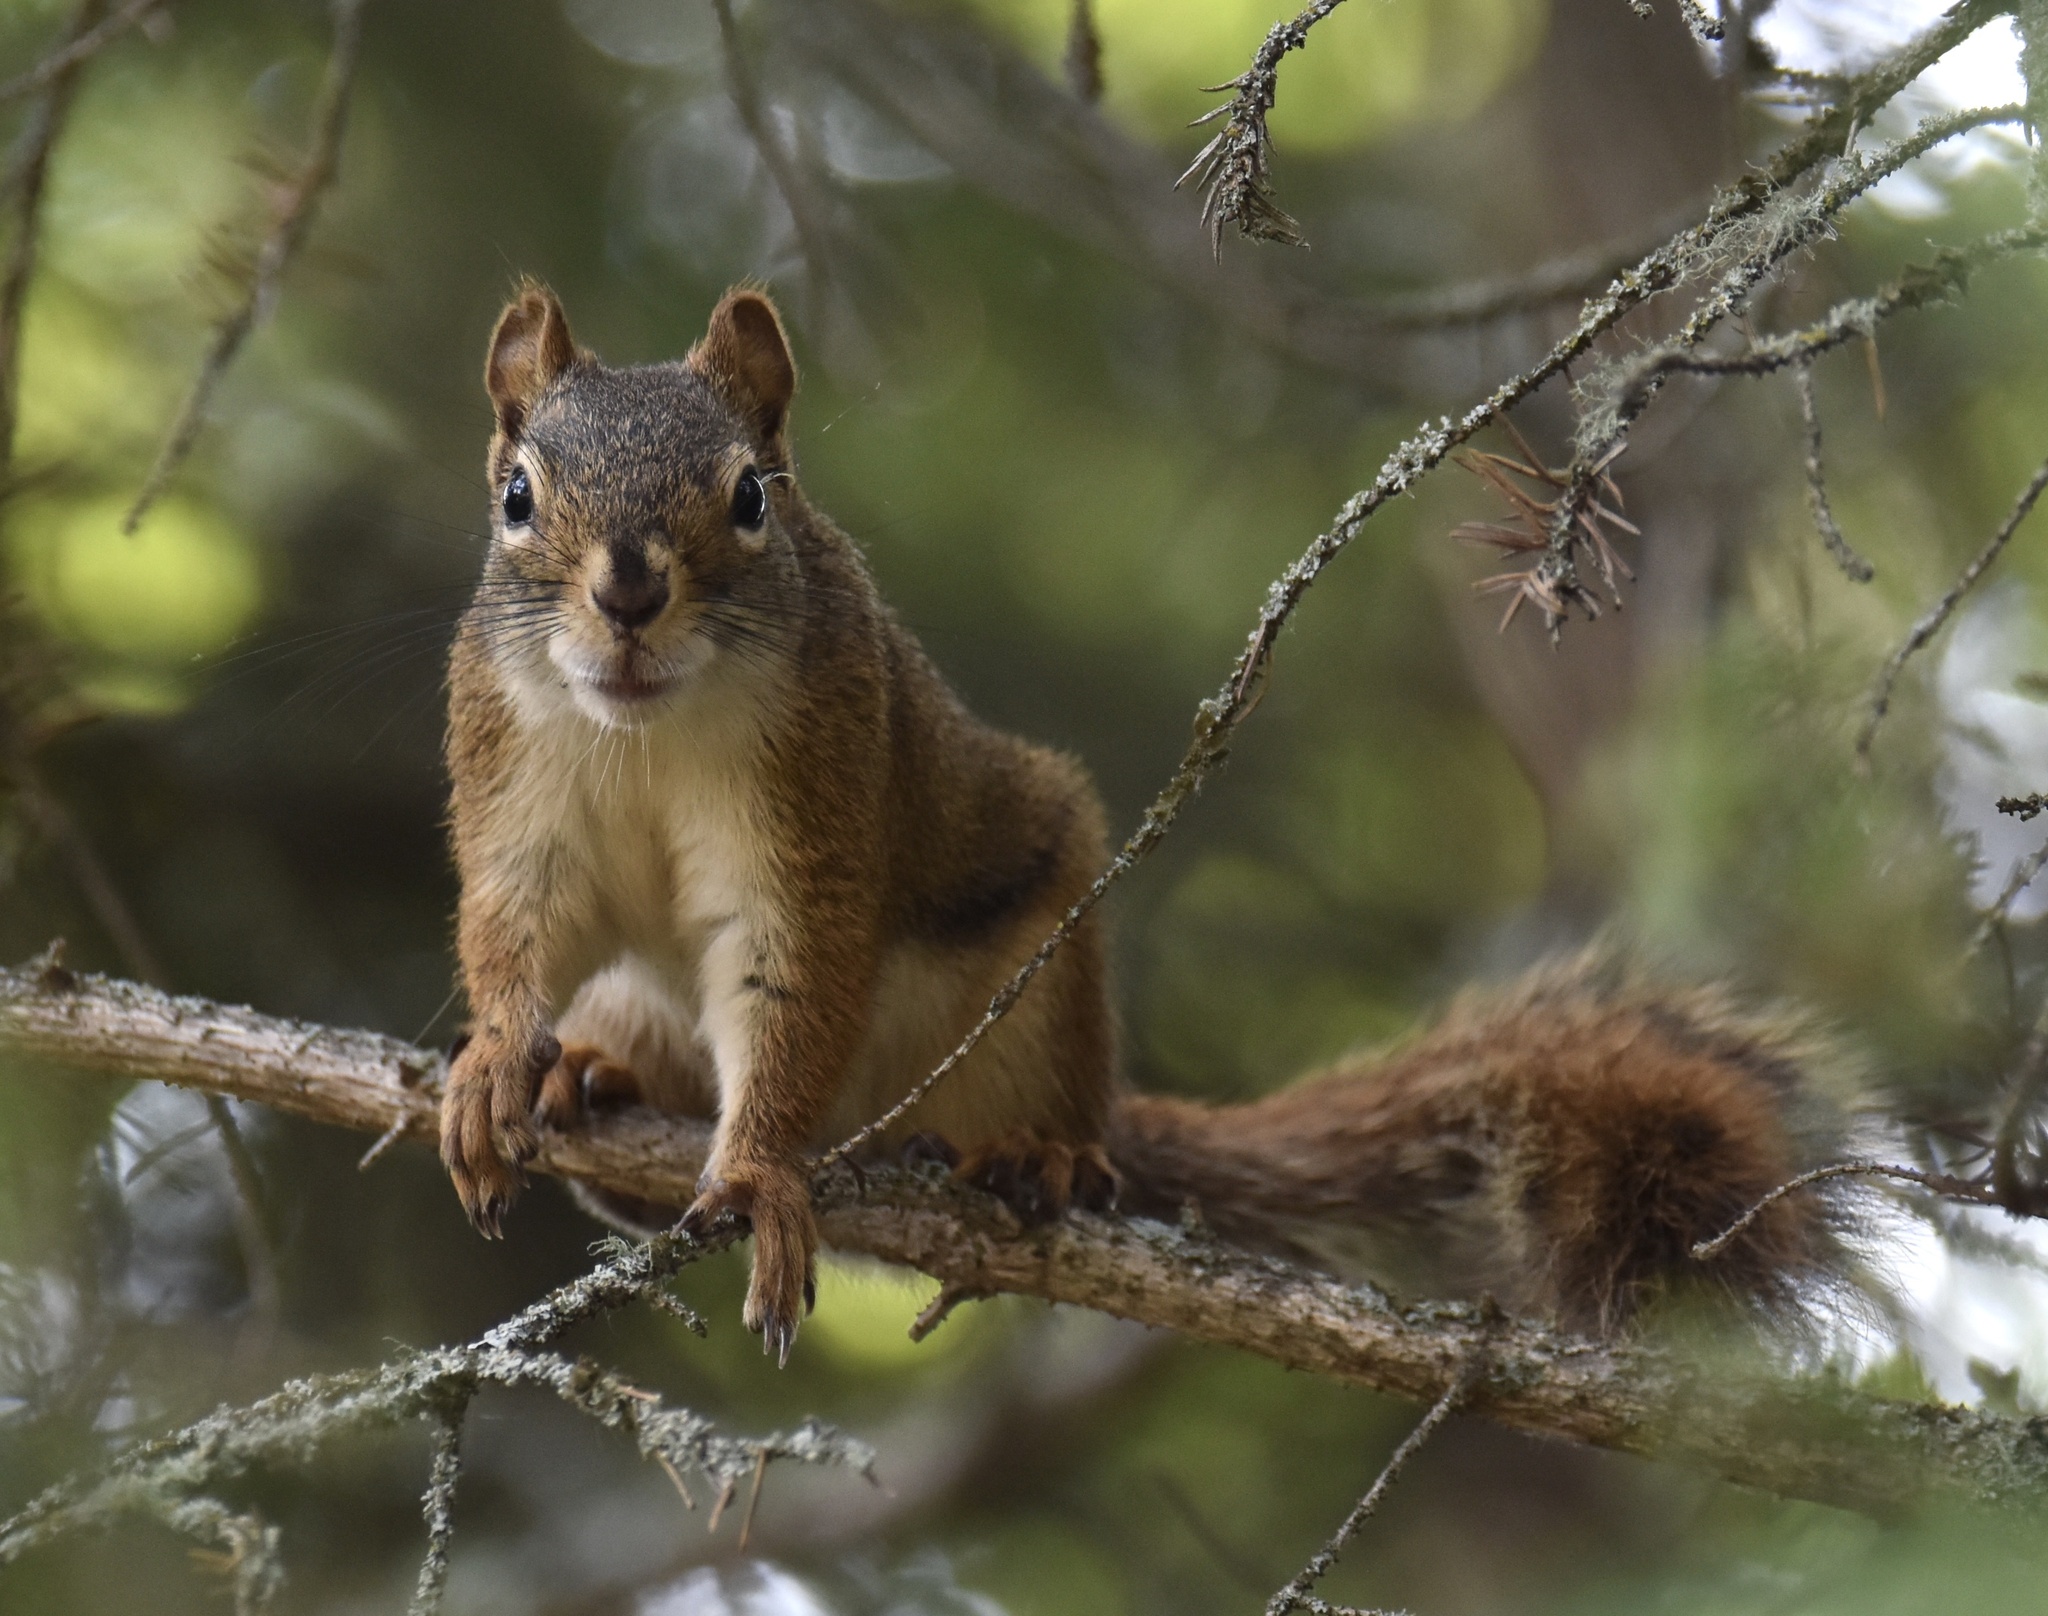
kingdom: Animalia
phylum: Chordata
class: Mammalia
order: Rodentia
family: Sciuridae
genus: Tamiasciurus
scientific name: Tamiasciurus hudsonicus
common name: Red squirrel
